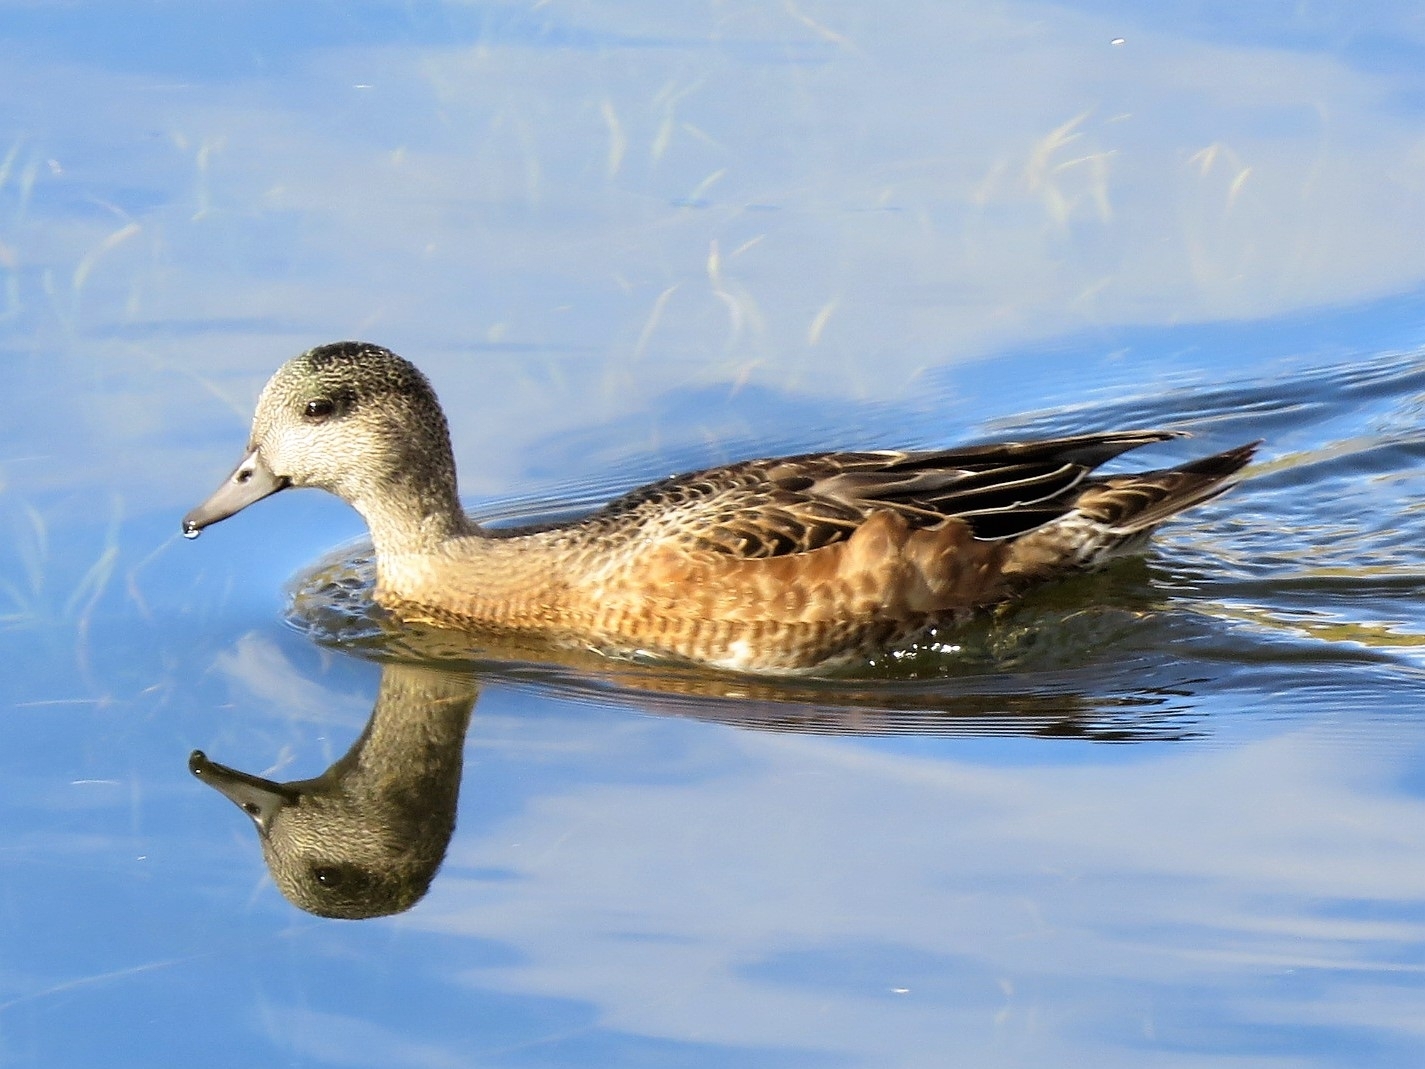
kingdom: Animalia
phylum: Chordata
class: Aves
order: Anseriformes
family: Anatidae
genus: Mareca
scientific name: Mareca americana
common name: American wigeon
